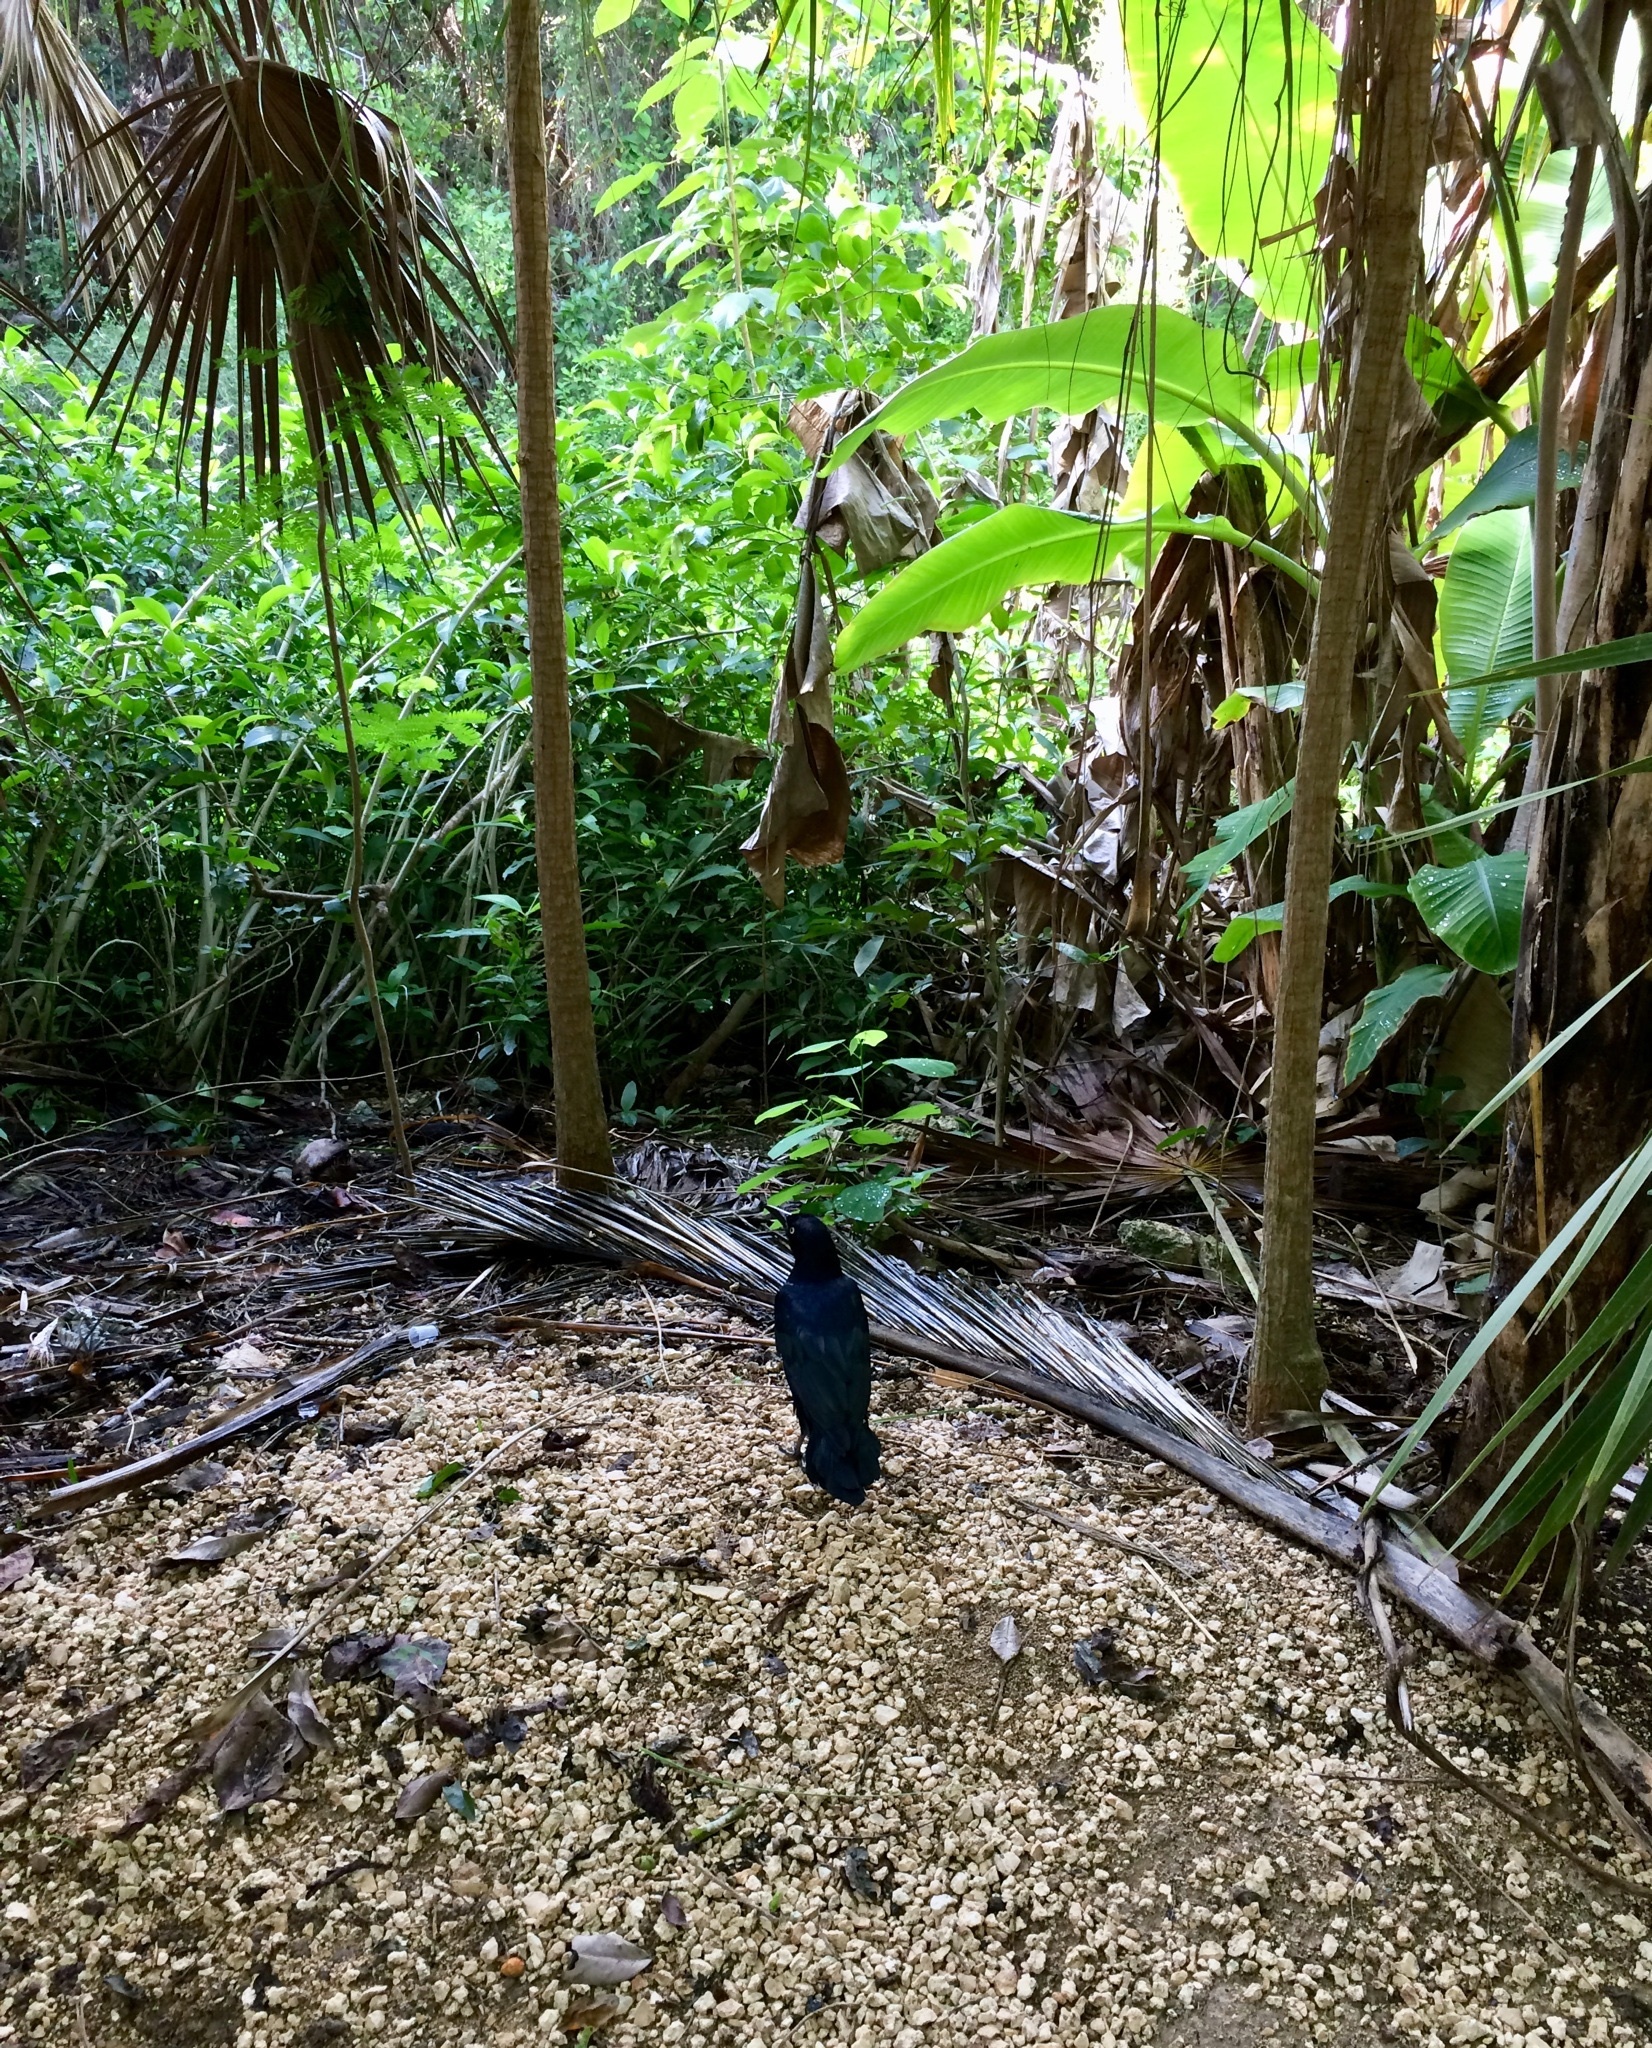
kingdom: Animalia
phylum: Chordata
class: Aves
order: Passeriformes
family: Icteridae
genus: Quiscalus
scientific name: Quiscalus mexicanus
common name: Great-tailed grackle
